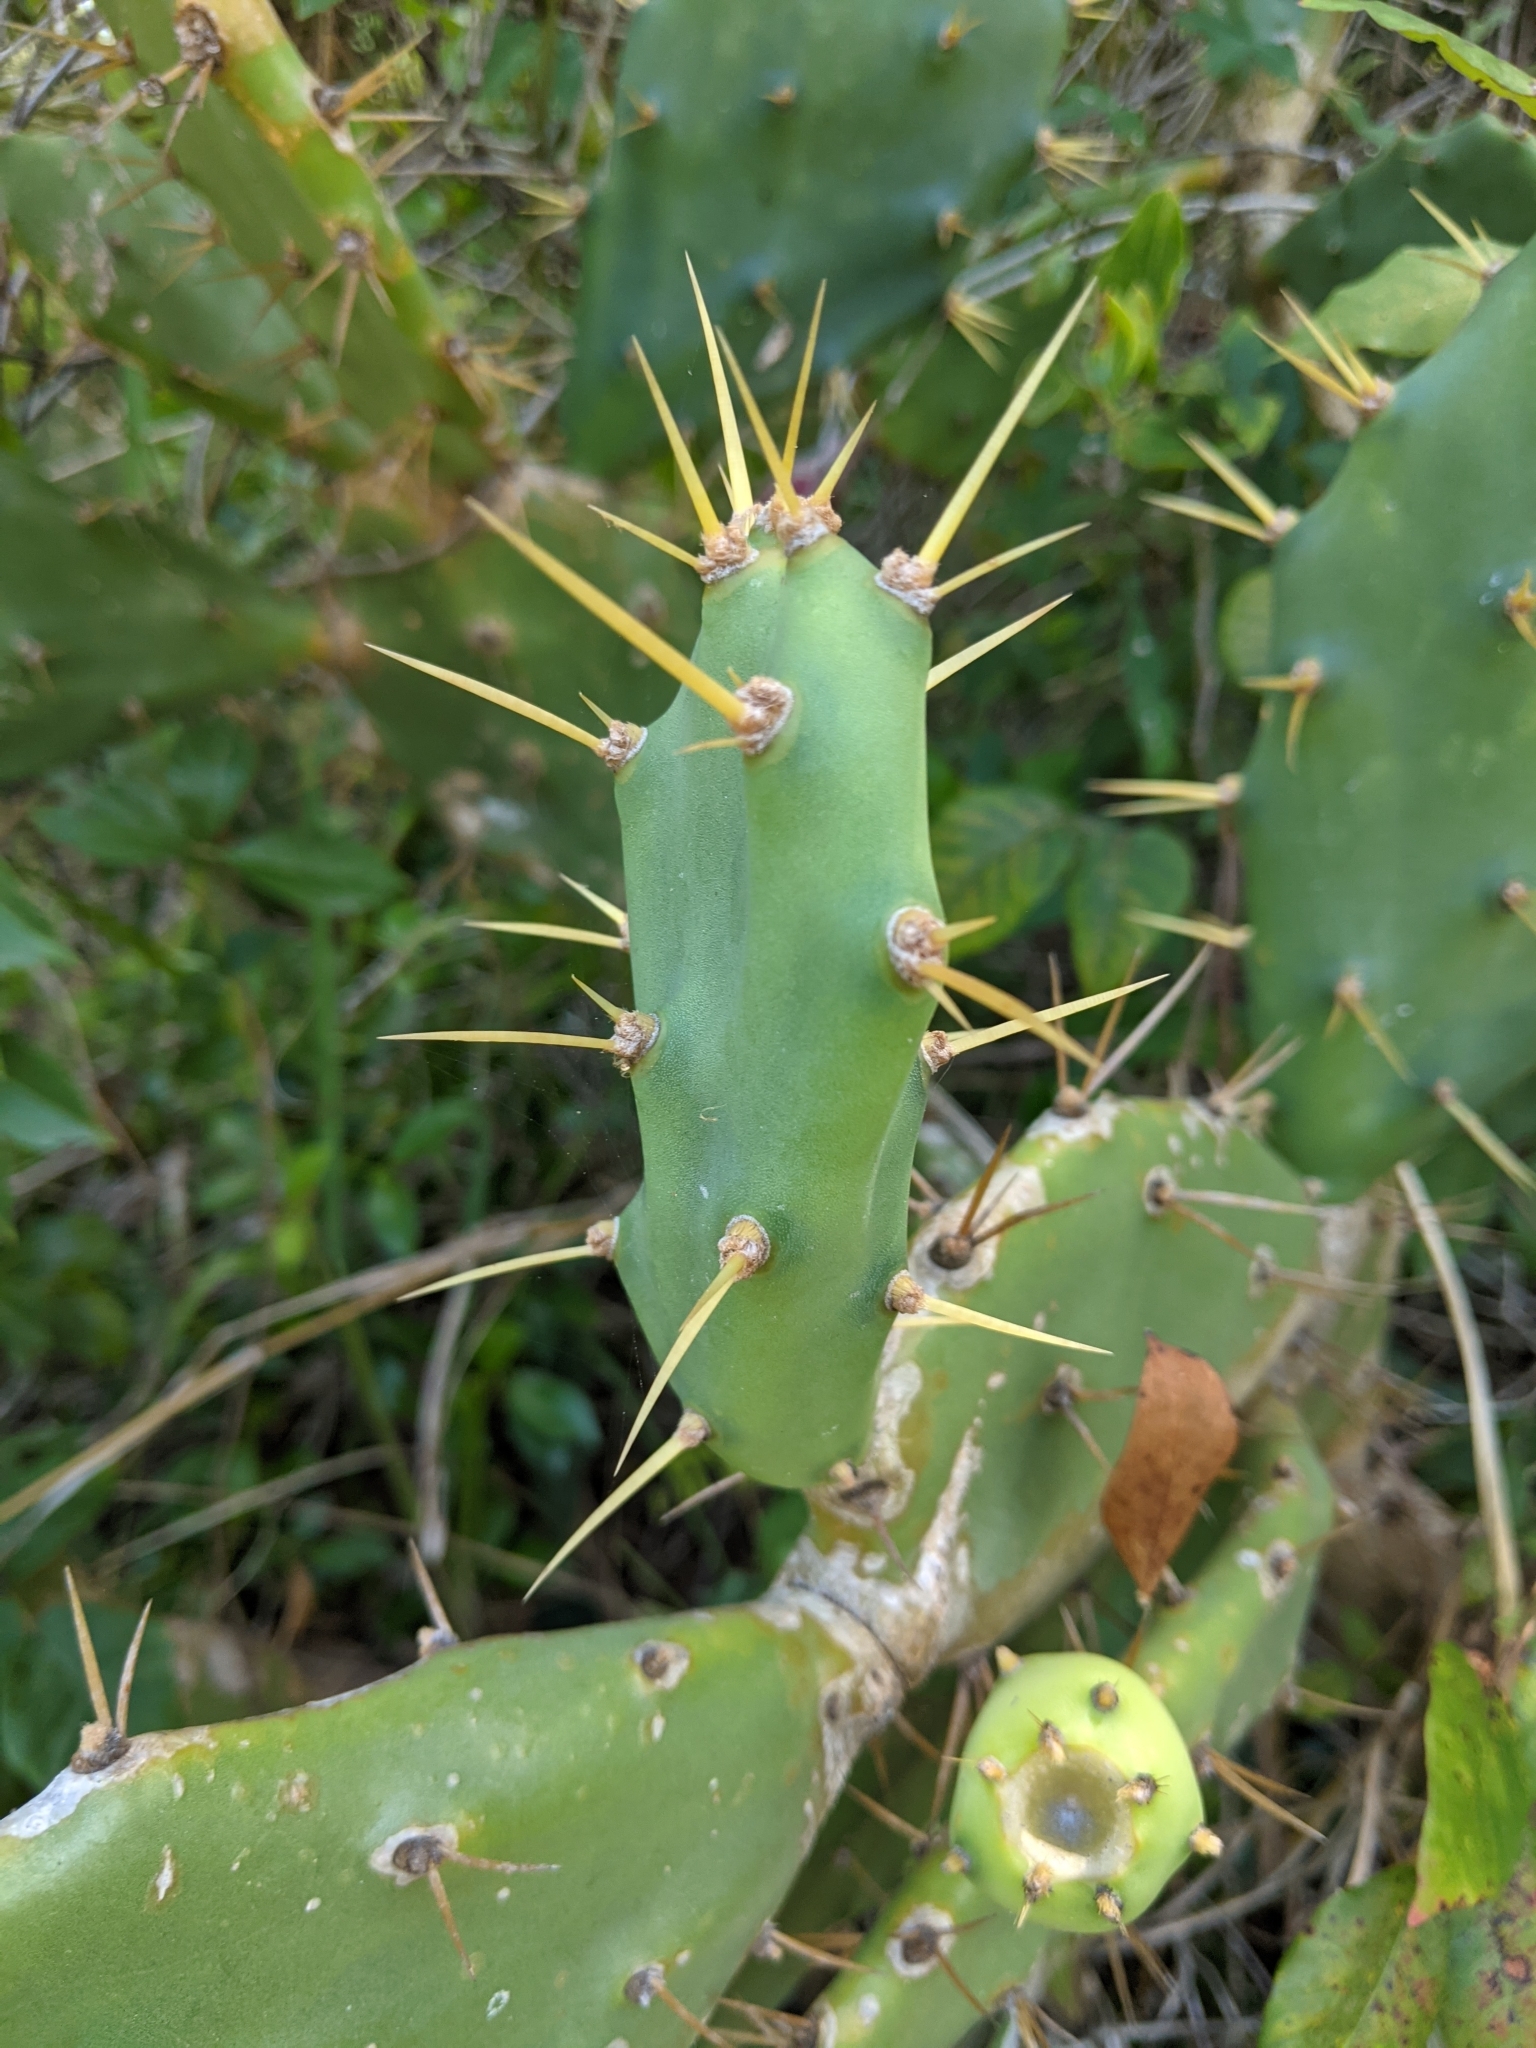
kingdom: Plantae
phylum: Tracheophyta
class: Magnoliopsida
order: Caryophyllales
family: Cactaceae
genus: Opuntia
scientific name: Opuntia stricta
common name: Erect pricklypear
